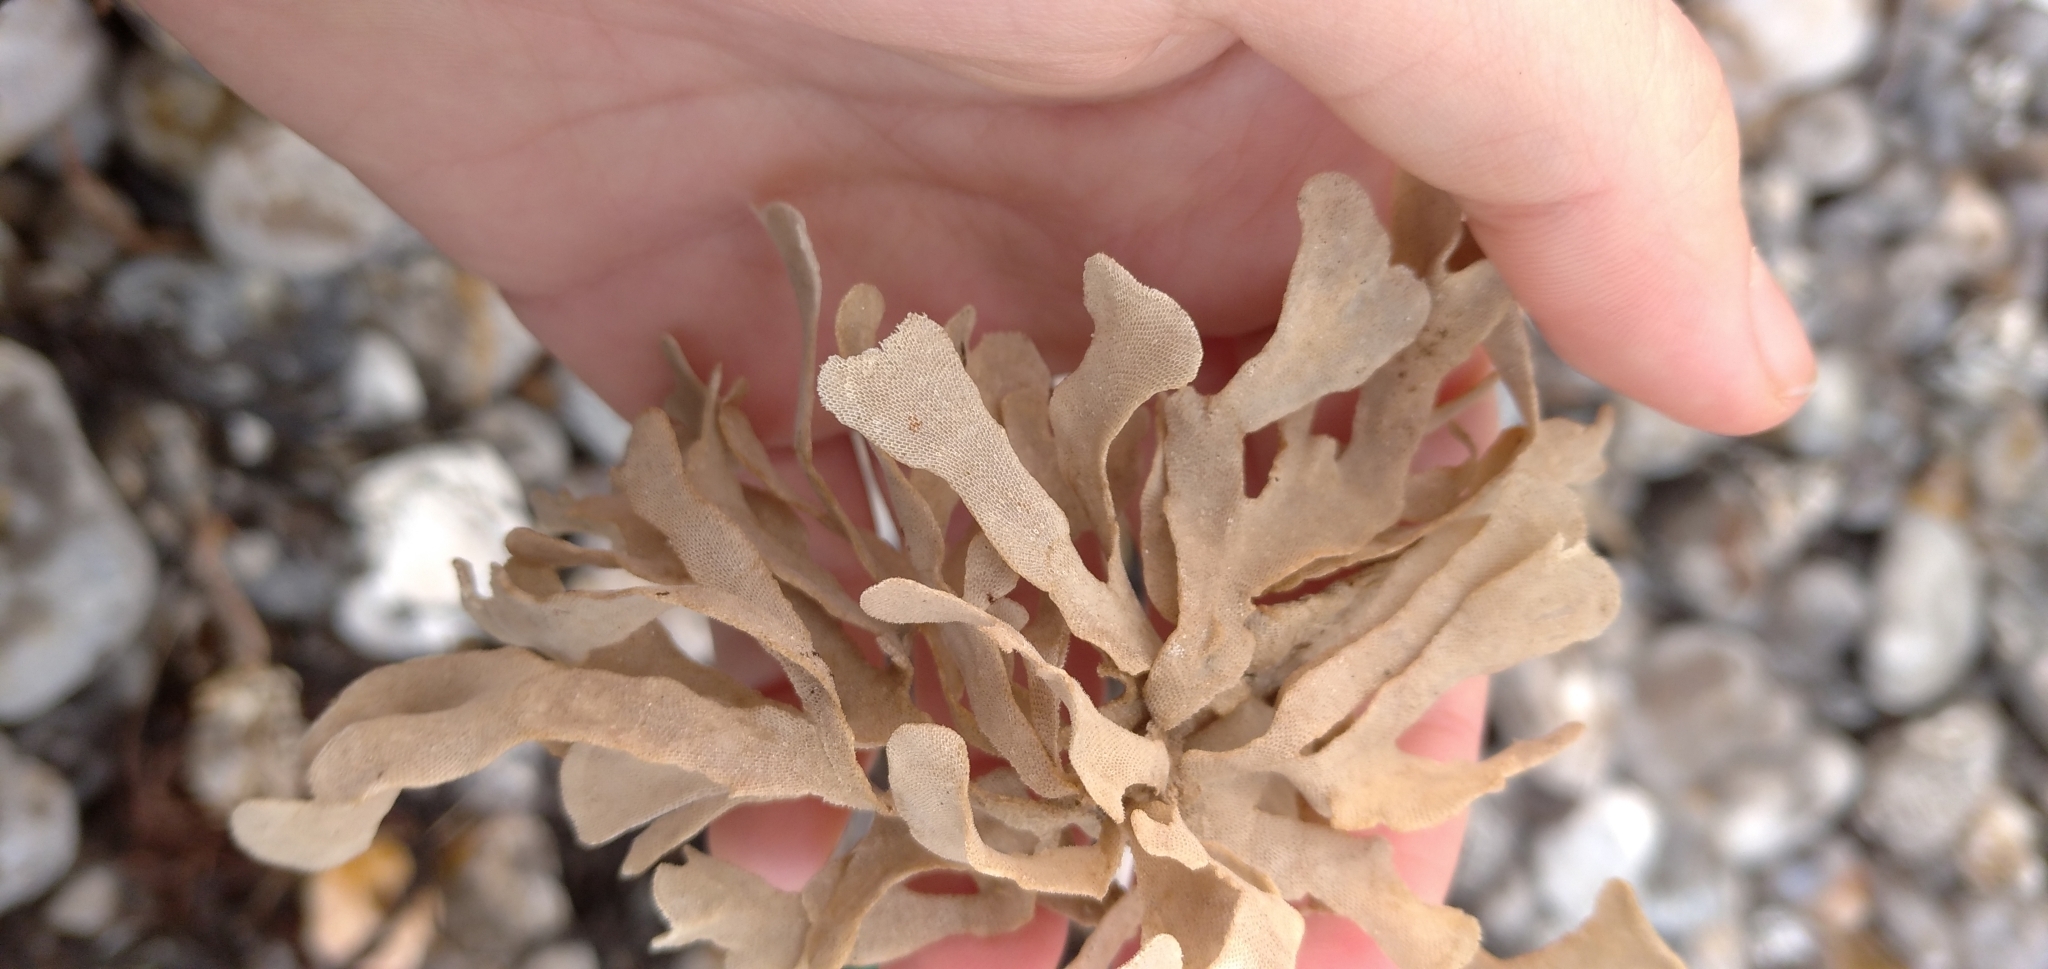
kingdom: Animalia
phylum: Bryozoa
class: Gymnolaemata
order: Cheilostomatida
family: Flustridae
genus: Flustra
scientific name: Flustra foliacea
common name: Hornwrack
